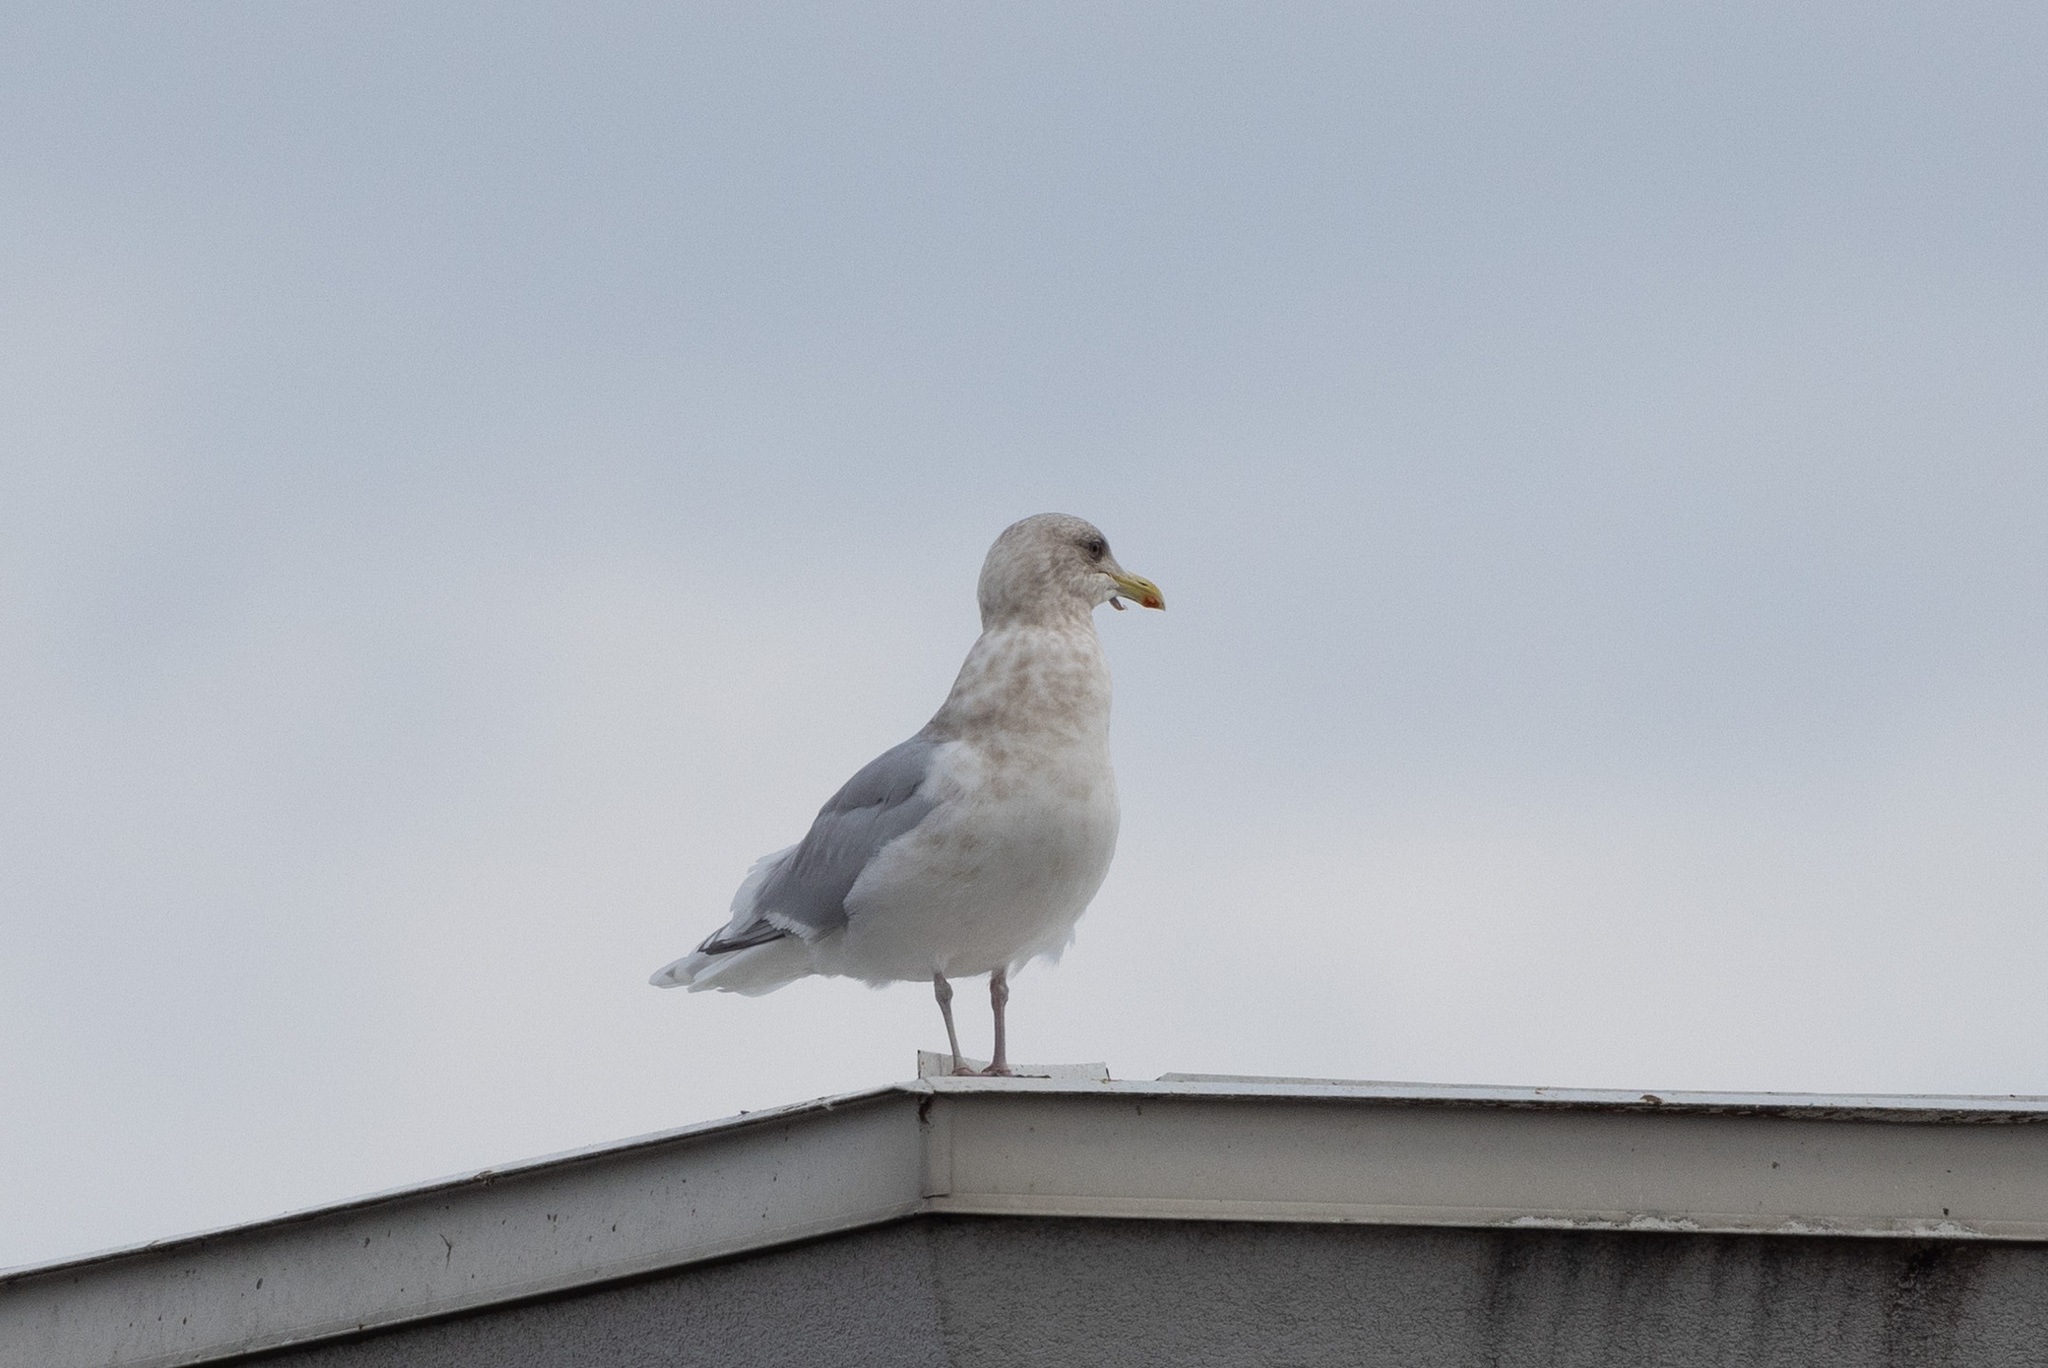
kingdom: Animalia
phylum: Chordata
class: Aves
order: Charadriiformes
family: Laridae
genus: Larus
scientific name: Larus argentatus
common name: Herring gull
